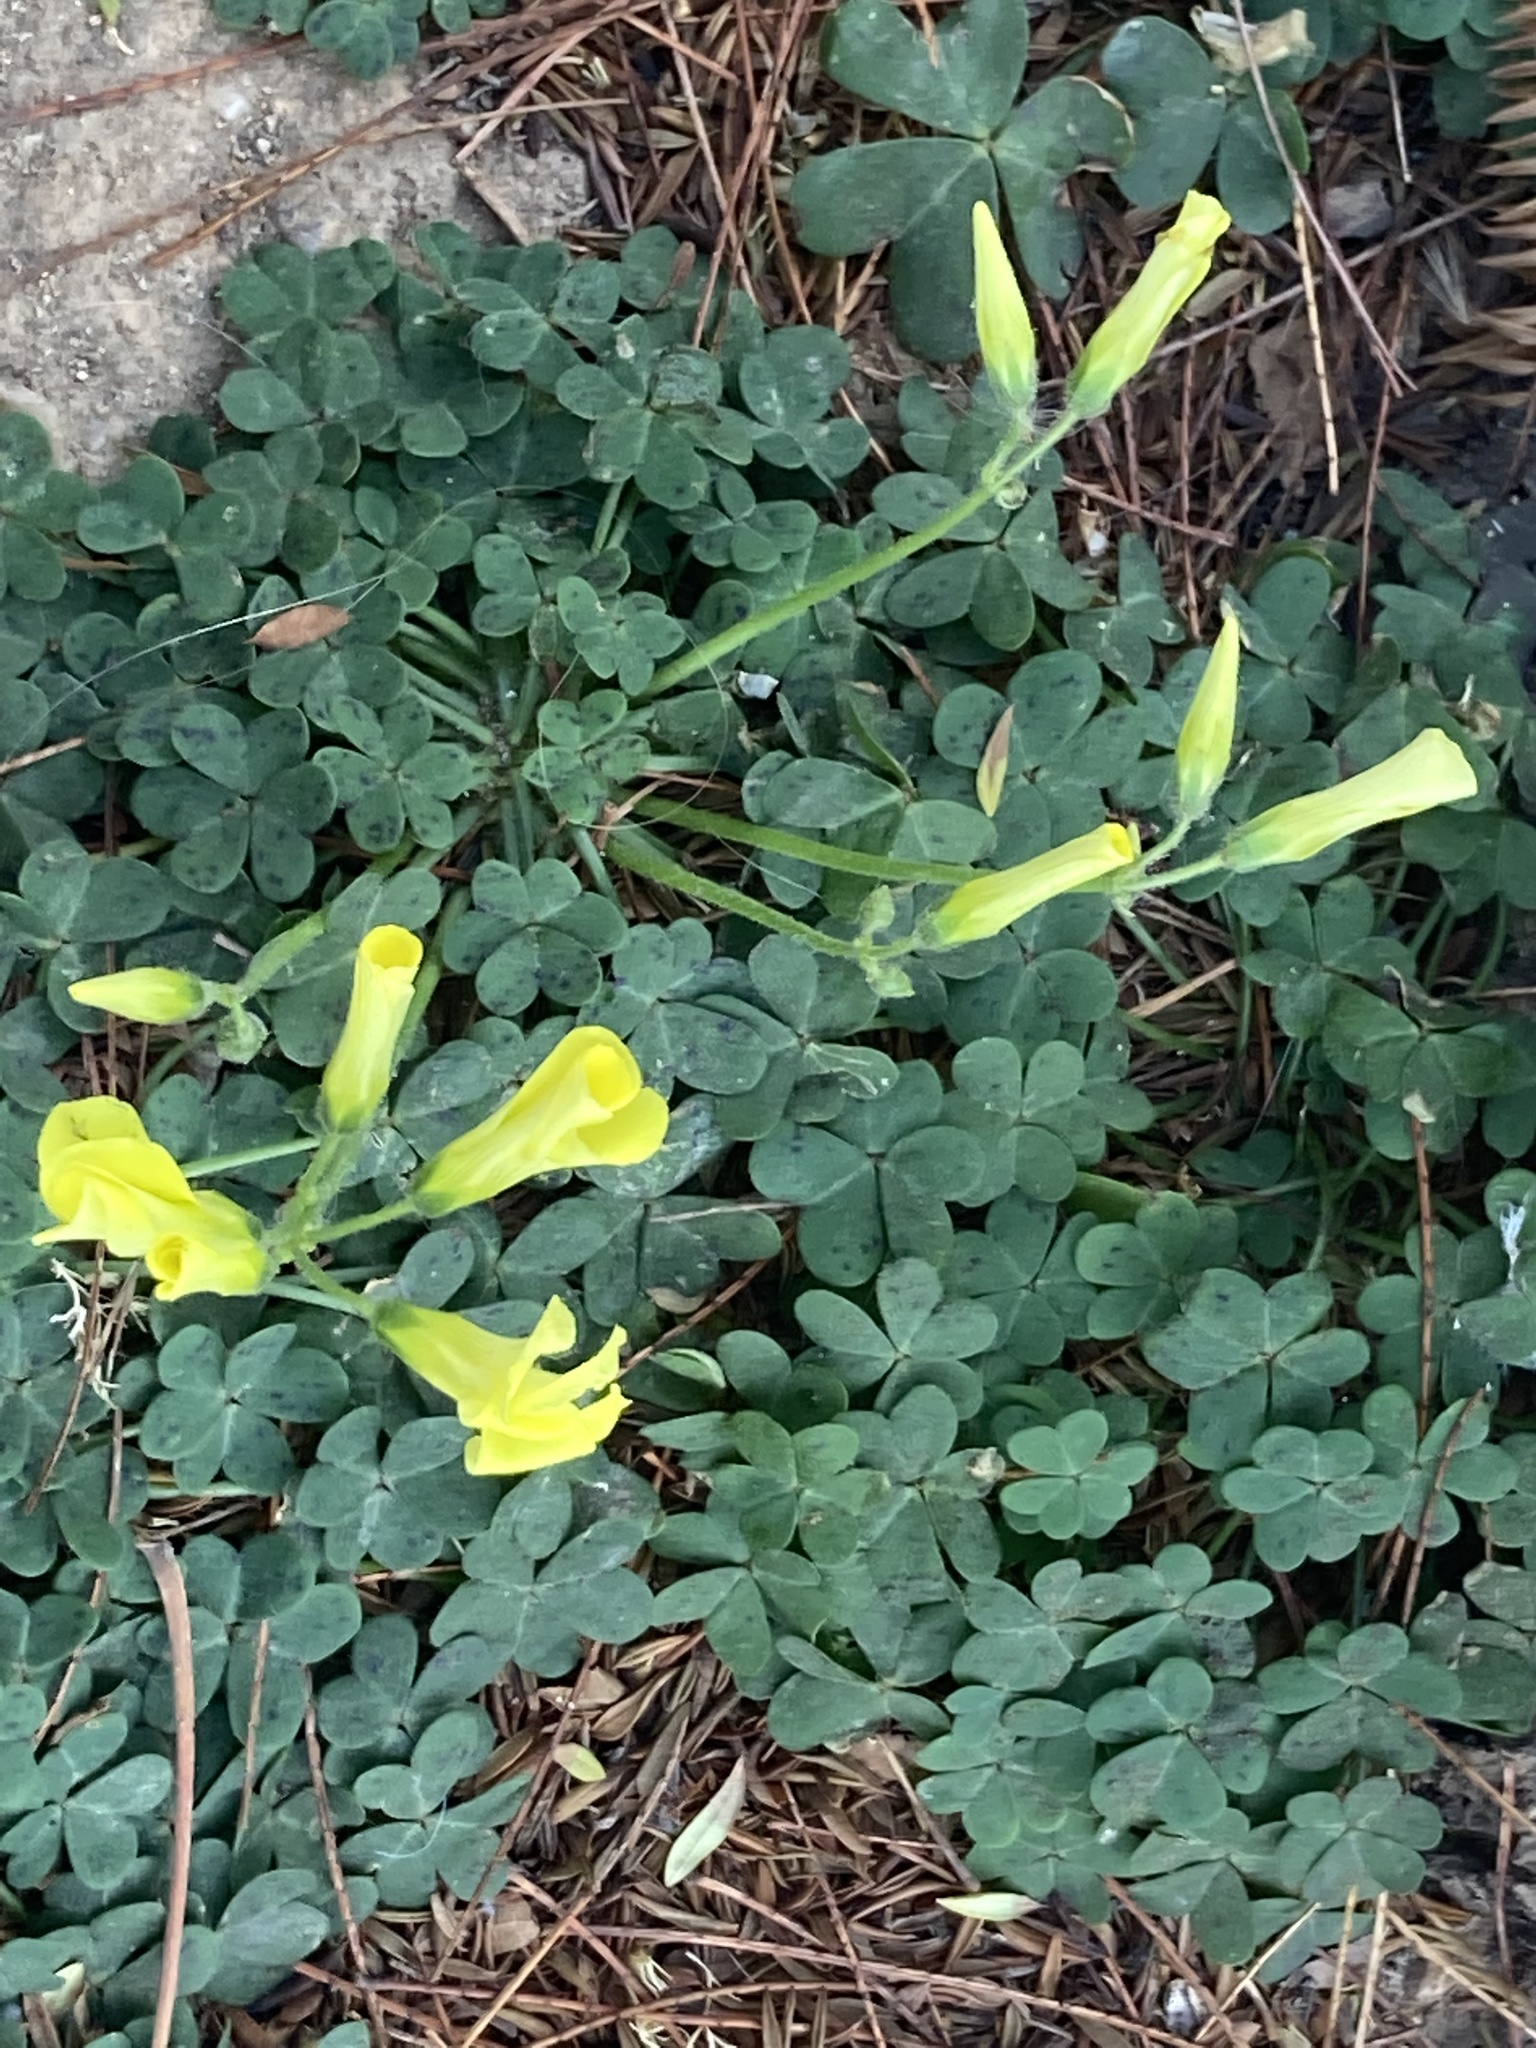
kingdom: Plantae
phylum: Tracheophyta
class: Magnoliopsida
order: Oxalidales
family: Oxalidaceae
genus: Oxalis
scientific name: Oxalis pes-caprae
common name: Bermuda-buttercup
